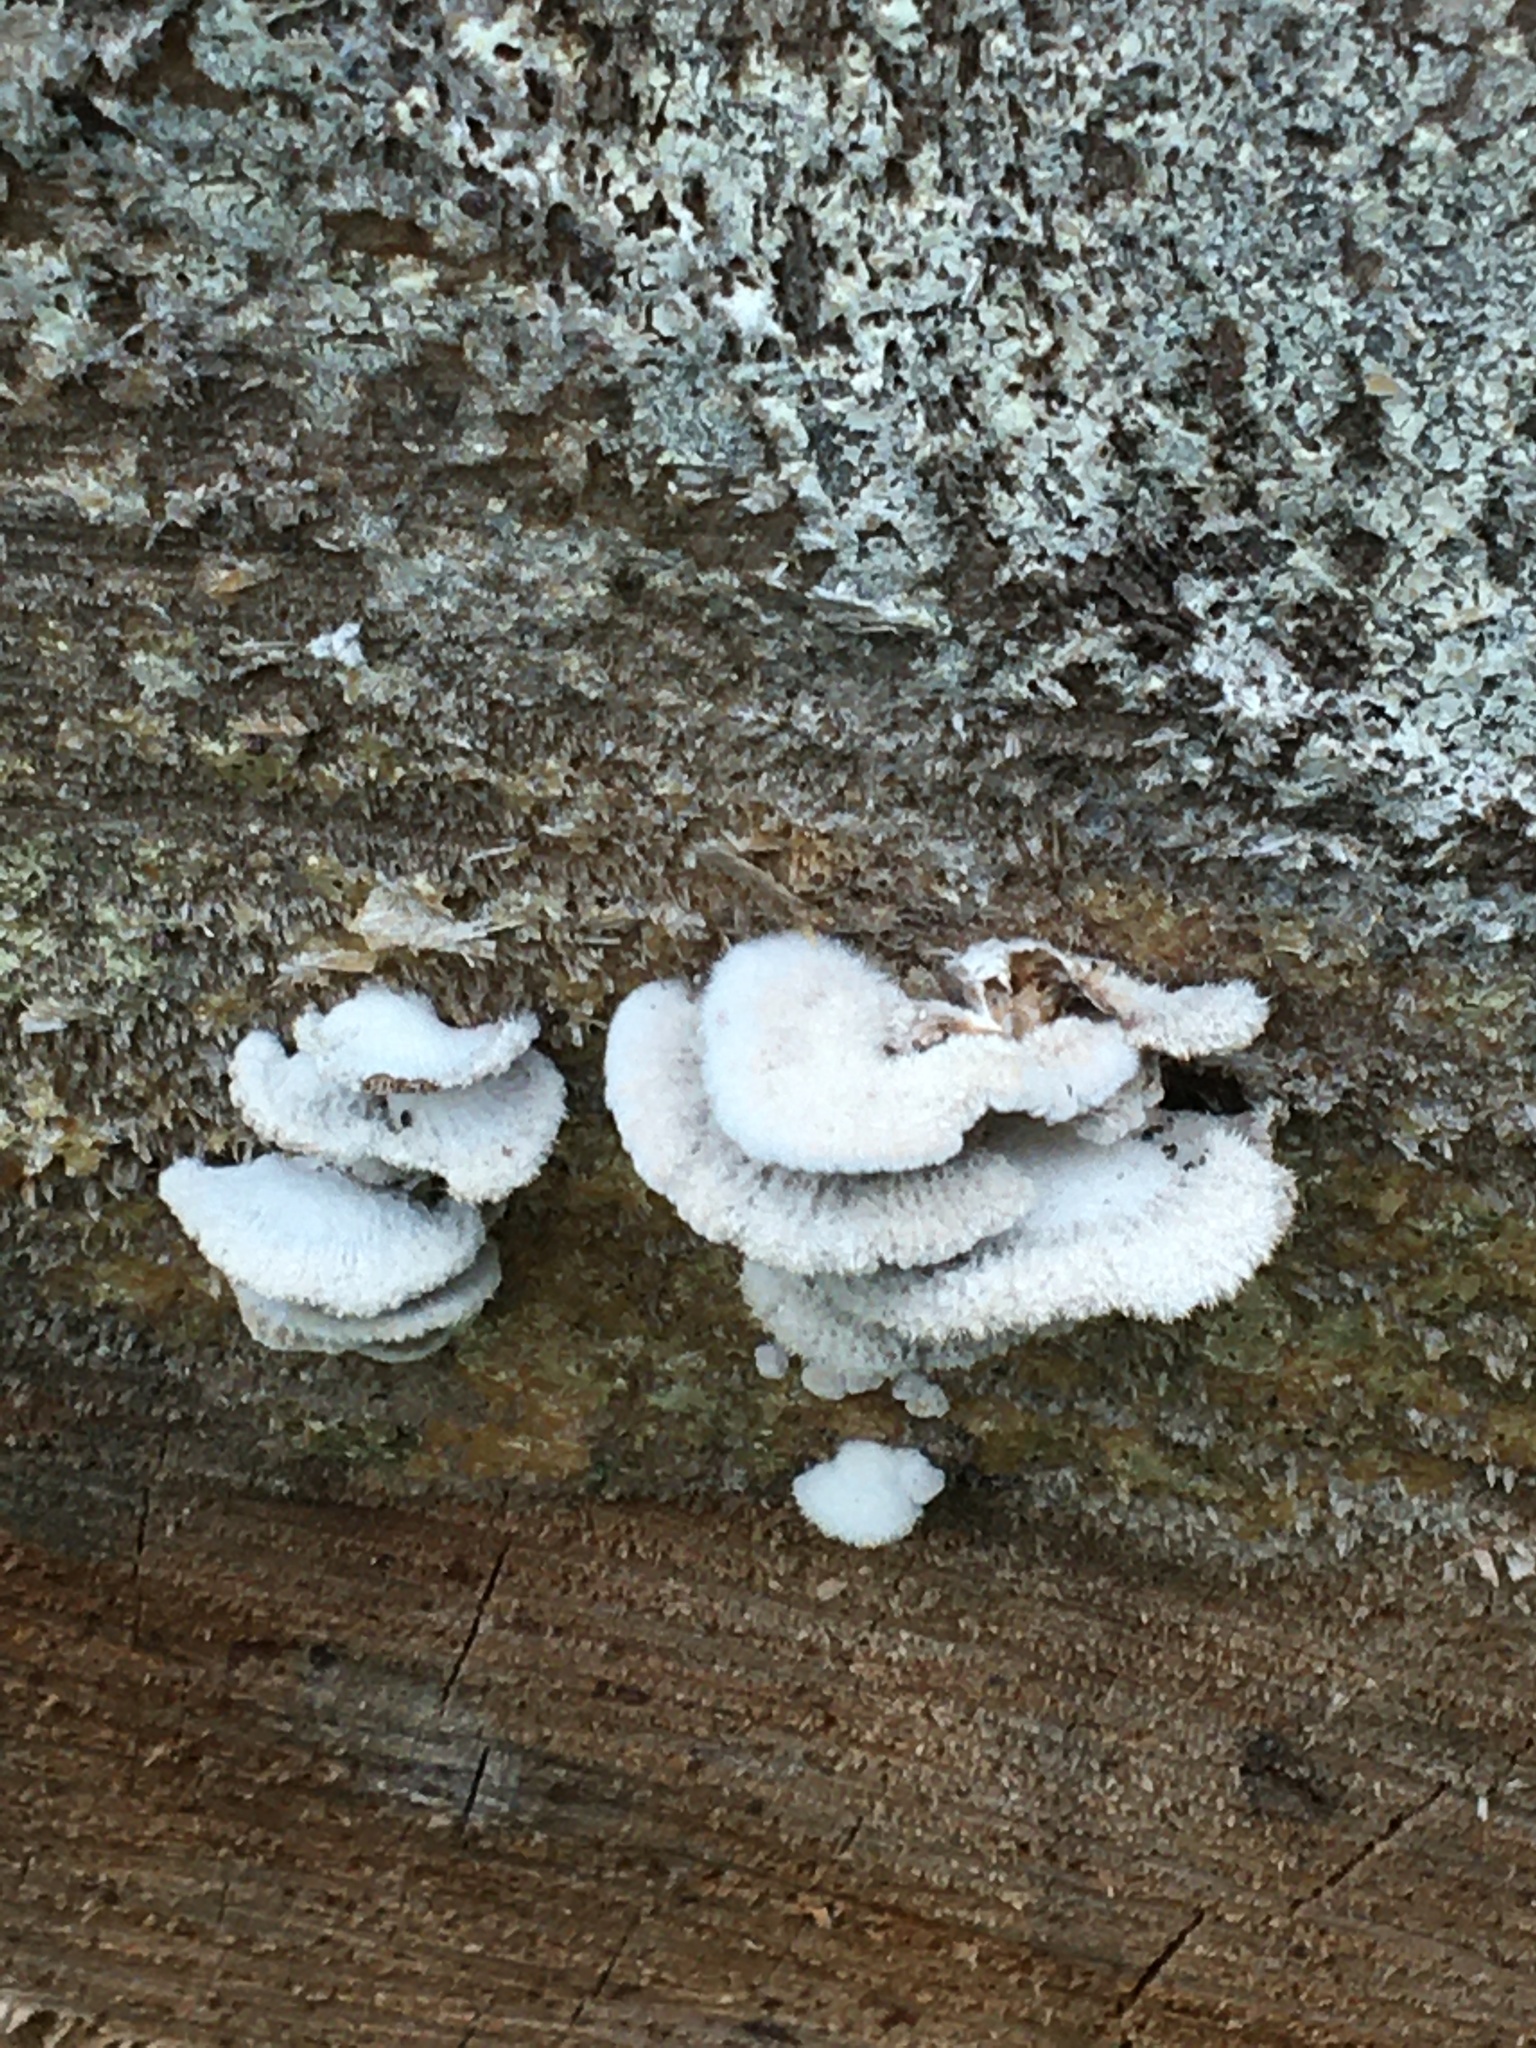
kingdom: Fungi
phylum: Basidiomycota
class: Agaricomycetes
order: Agaricales
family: Schizophyllaceae
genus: Schizophyllum
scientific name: Schizophyllum commune
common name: Common porecrust
